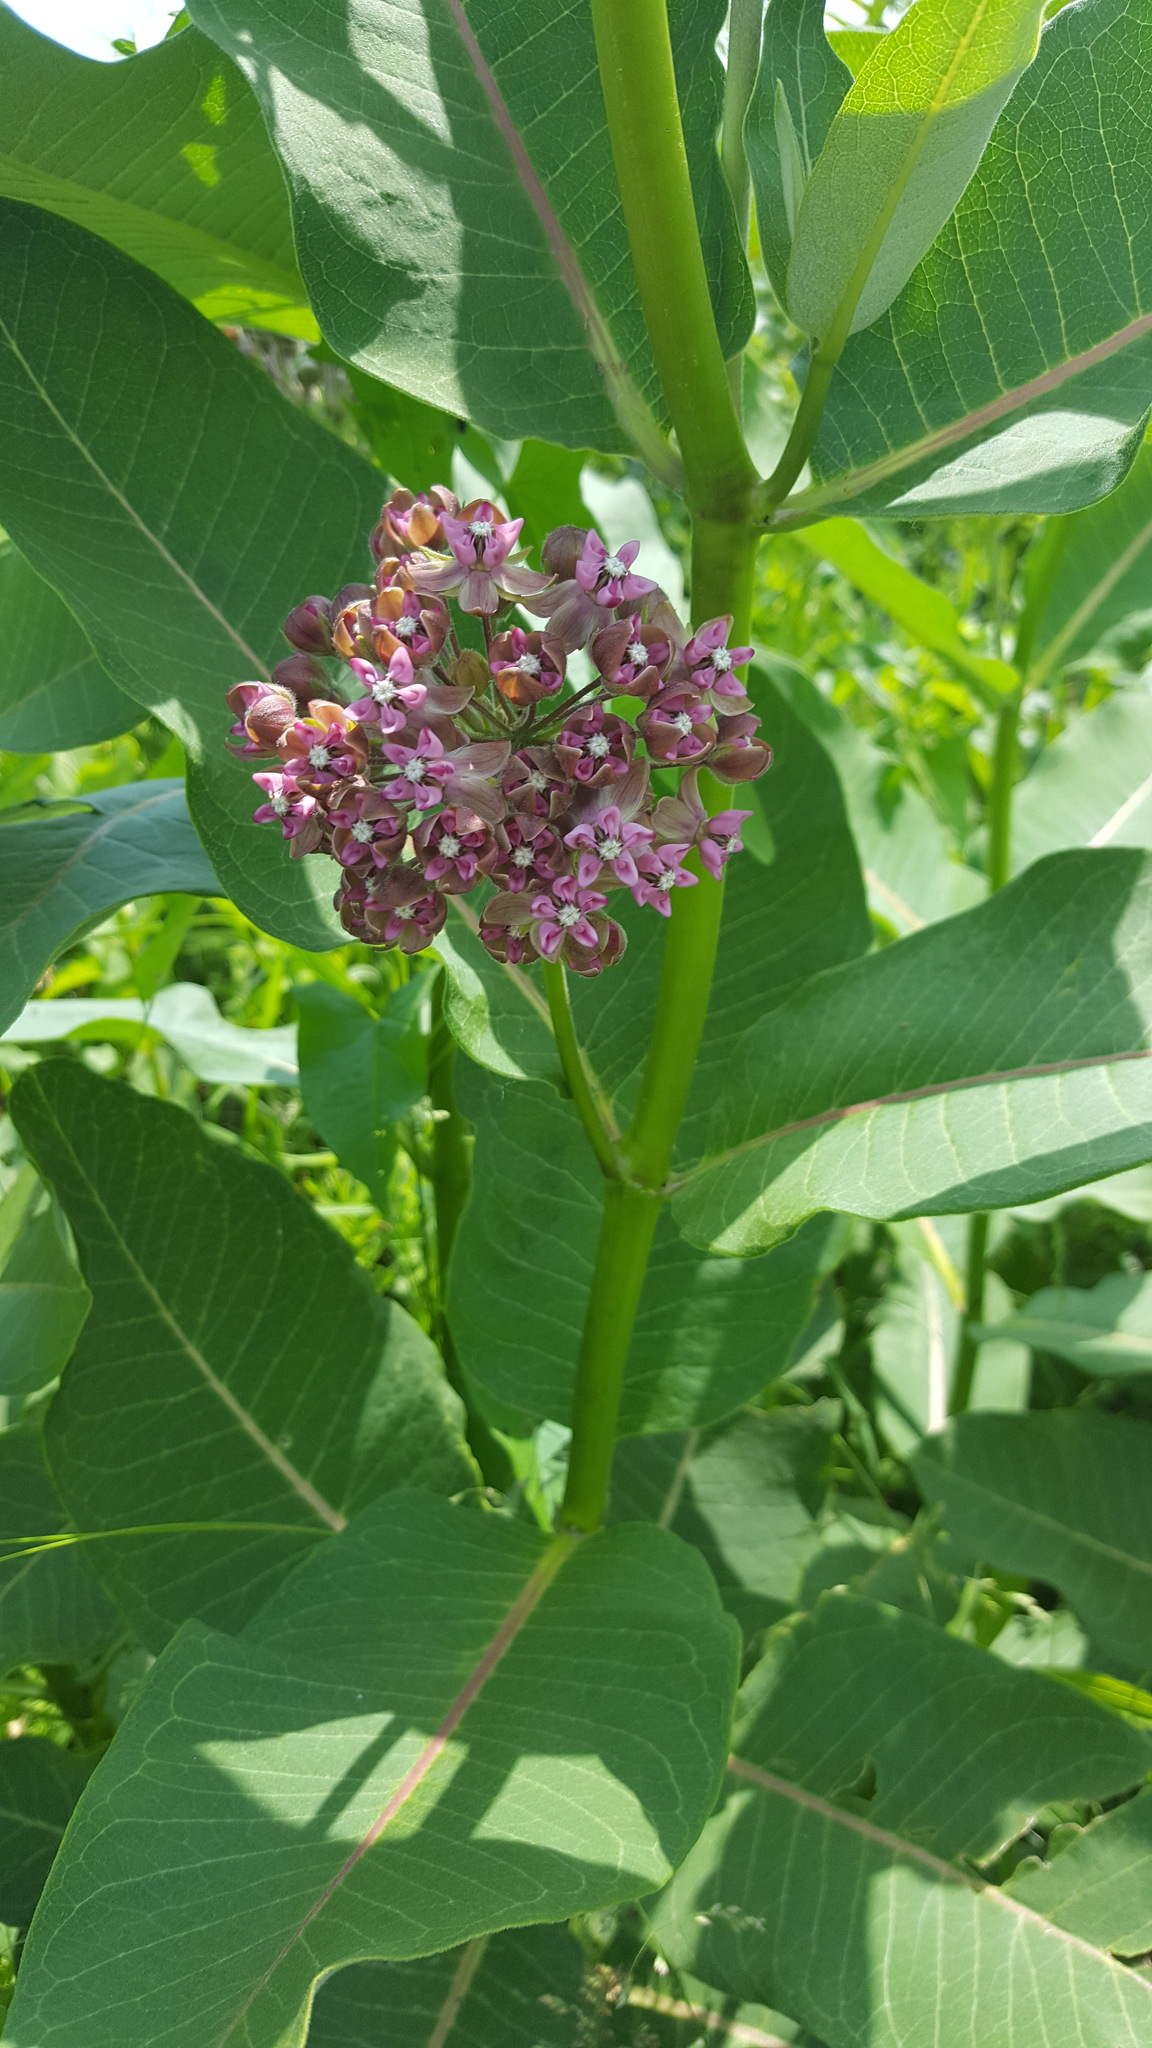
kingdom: Plantae
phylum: Tracheophyta
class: Magnoliopsida
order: Gentianales
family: Apocynaceae
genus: Asclepias
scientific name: Asclepias syriaca
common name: Common milkweed
